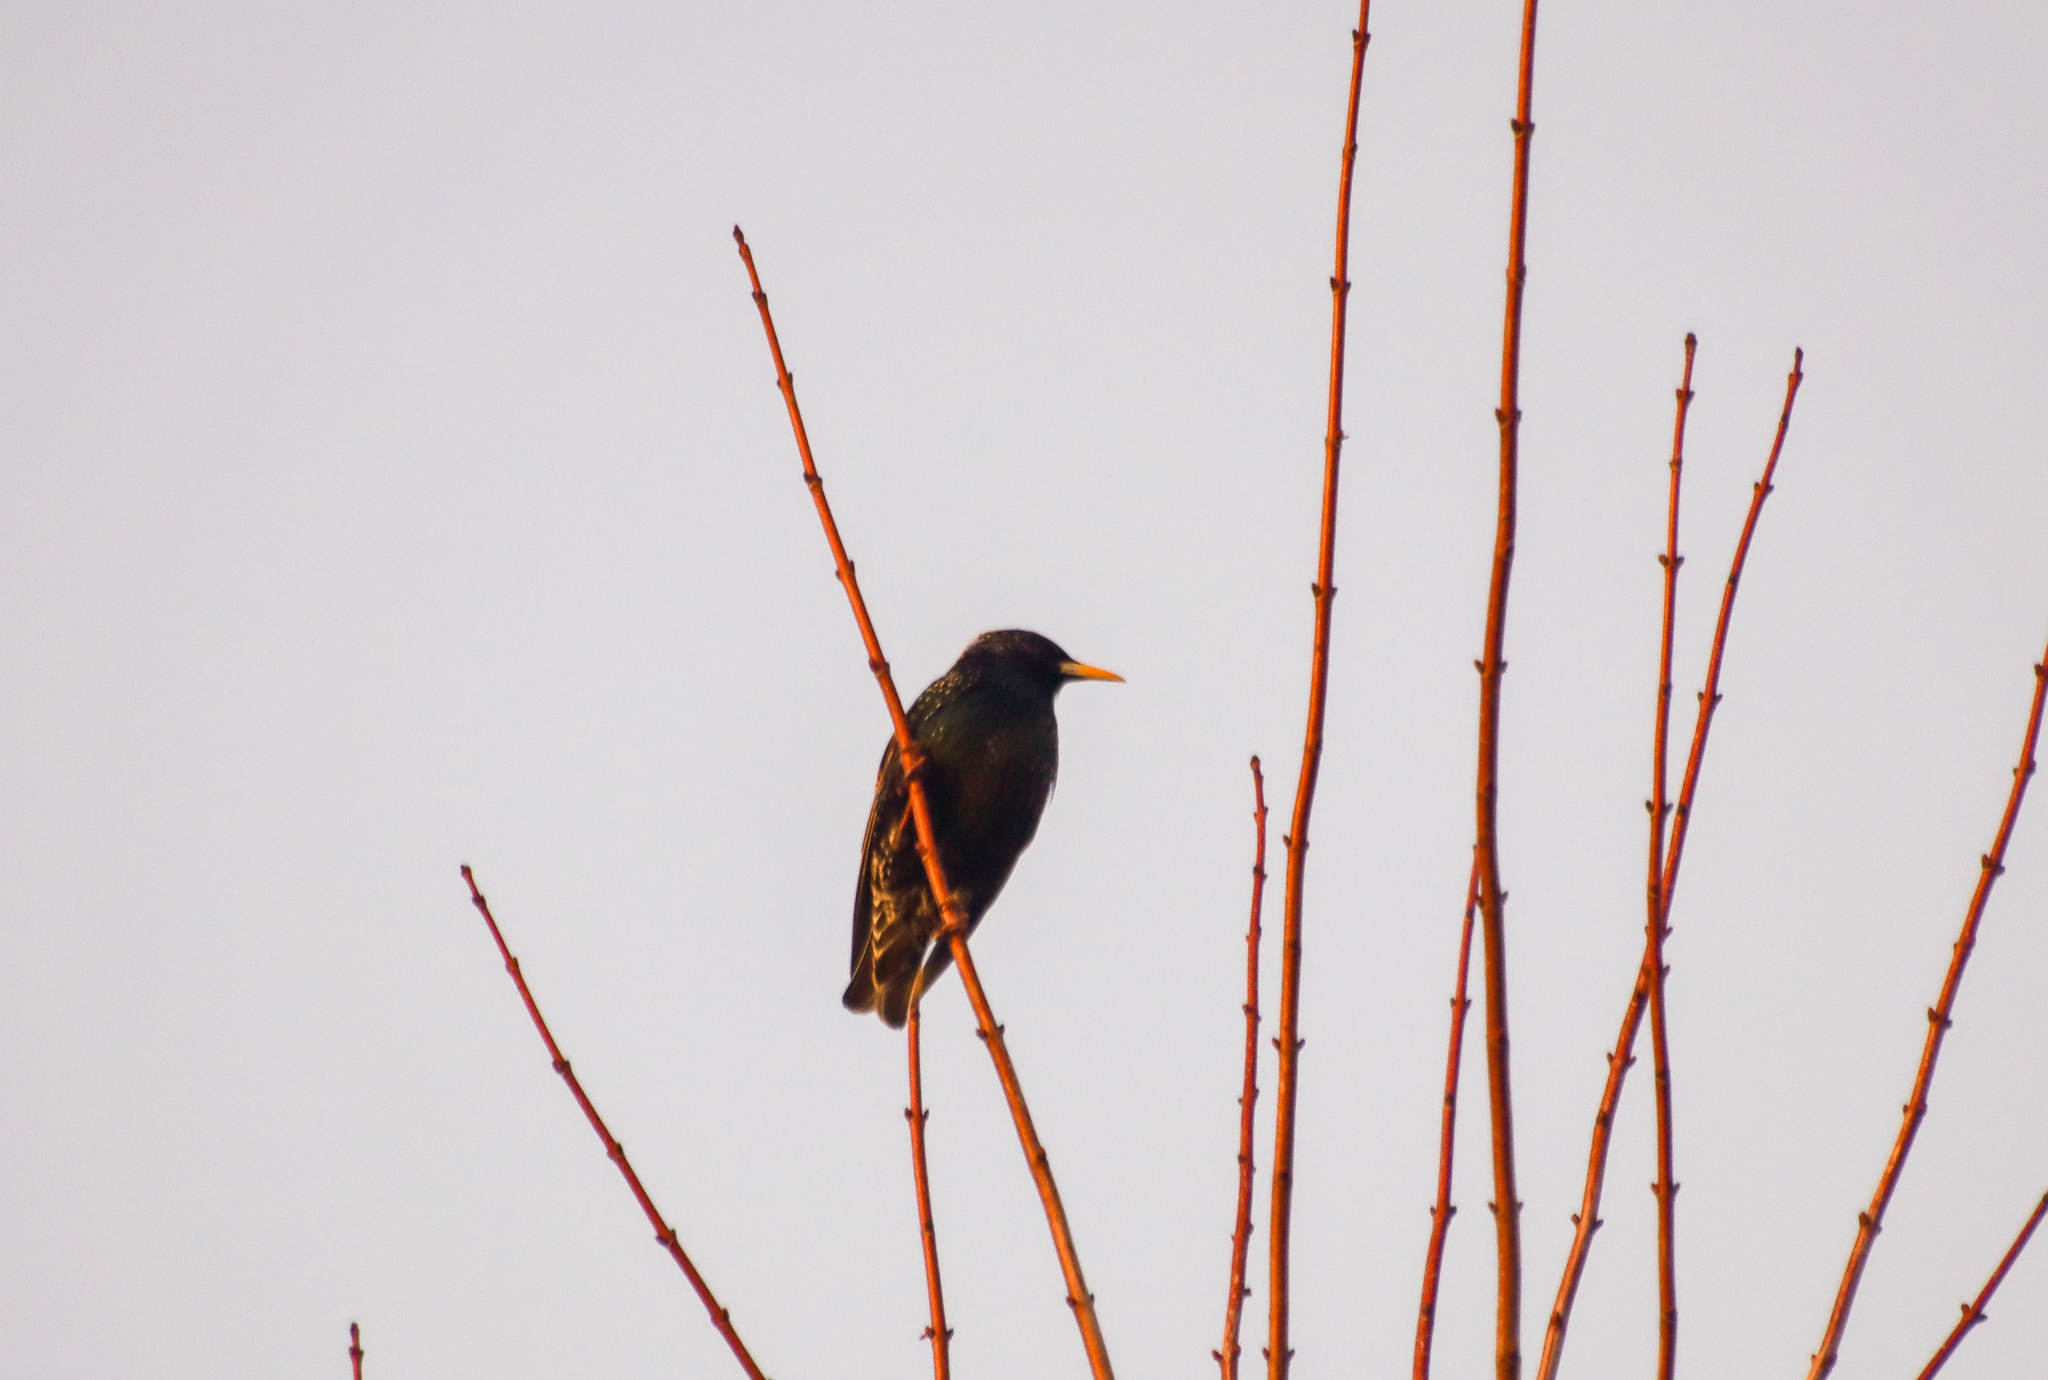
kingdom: Animalia
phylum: Chordata
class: Aves
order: Passeriformes
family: Sturnidae
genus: Sturnus
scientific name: Sturnus vulgaris
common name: Common starling
